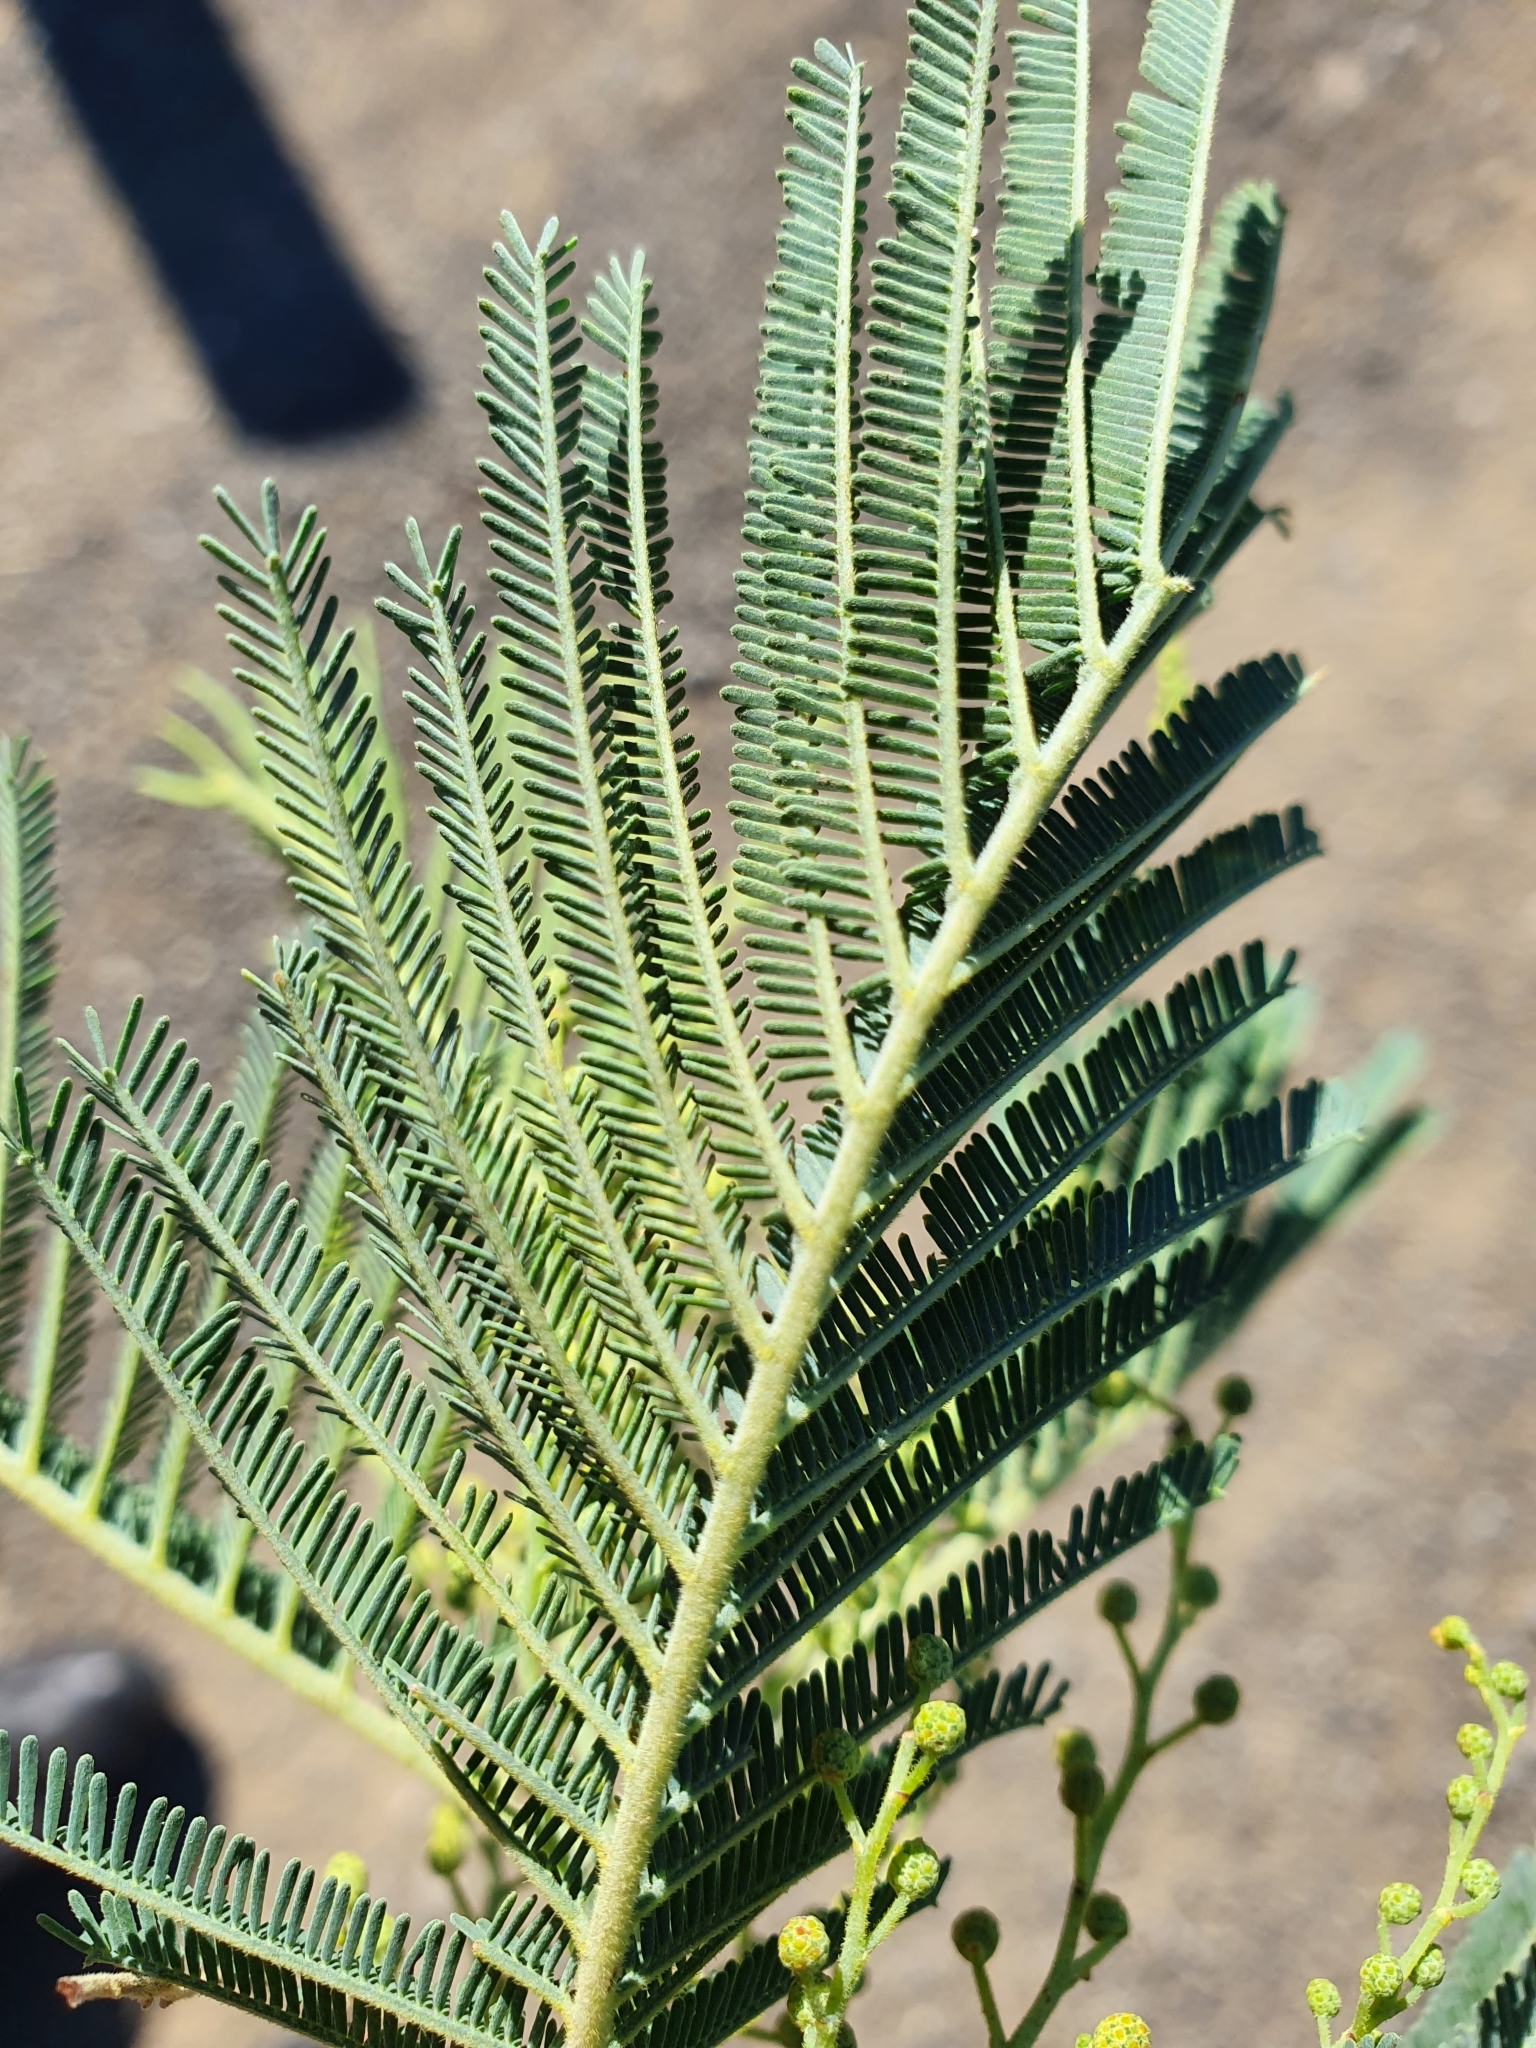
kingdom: Plantae
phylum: Tracheophyta
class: Magnoliopsida
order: Fabales
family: Fabaceae
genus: Acacia
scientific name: Acacia dealbata
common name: Silver wattle
